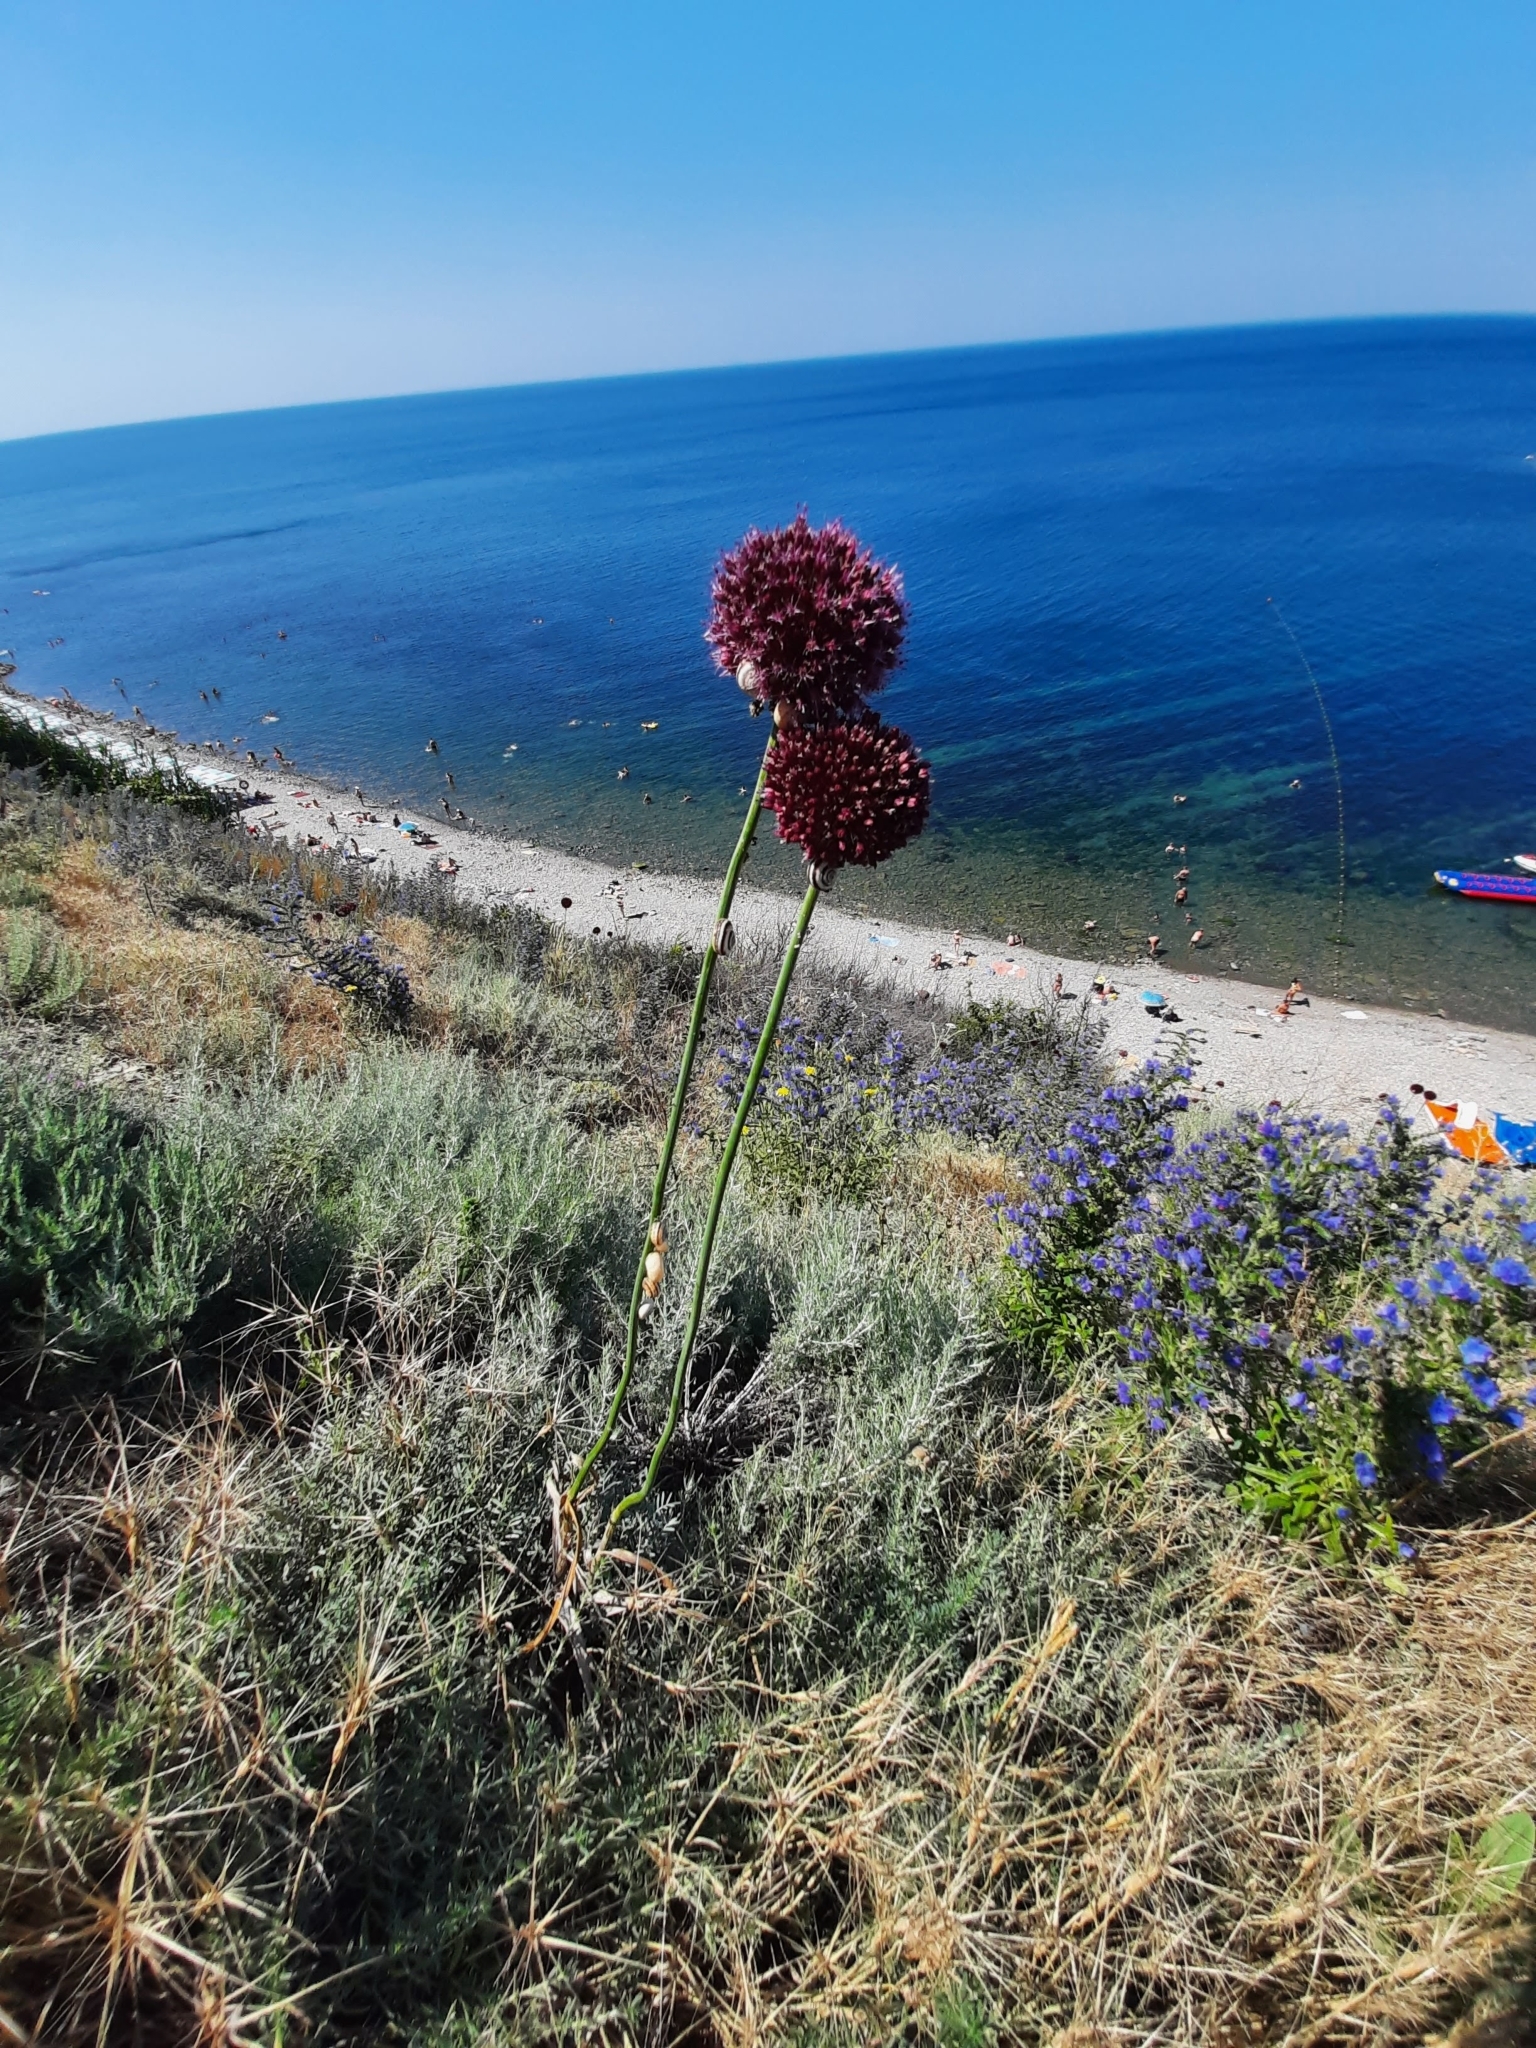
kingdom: Plantae
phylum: Tracheophyta
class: Liliopsida
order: Asparagales
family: Amaryllidaceae
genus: Allium
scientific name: Allium atroviolaceum
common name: Broadleaf wild leek
